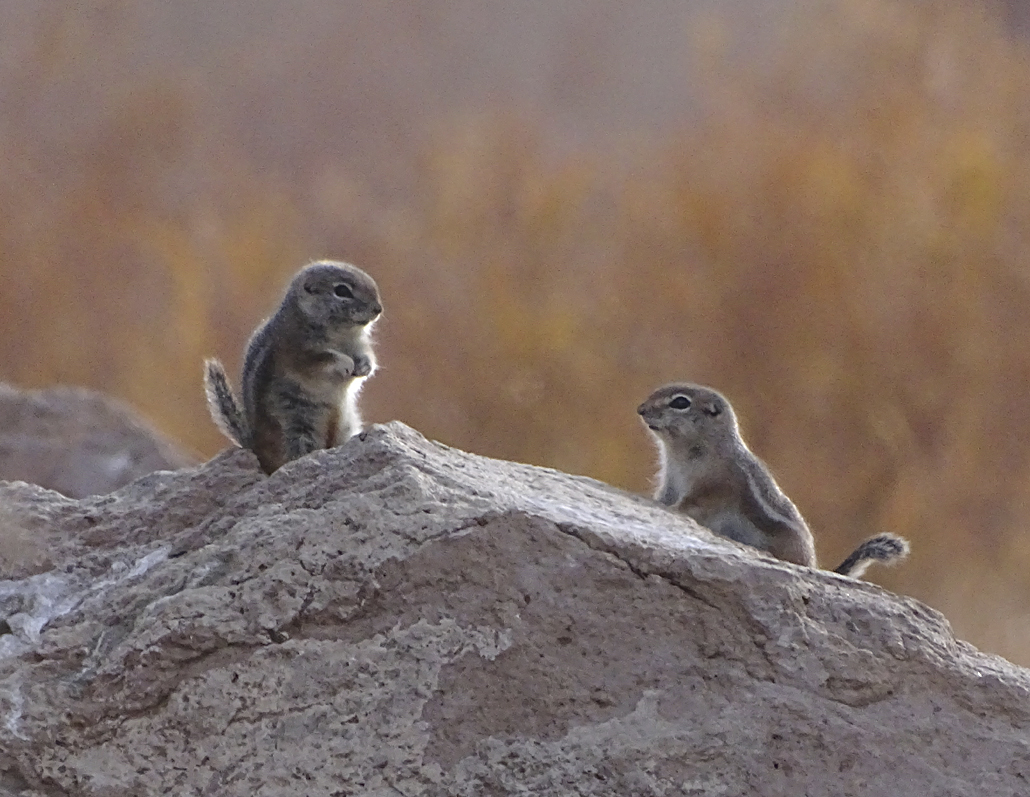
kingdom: Animalia
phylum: Chordata
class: Mammalia
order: Rodentia
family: Sciuridae
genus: Ammospermophilus
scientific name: Ammospermophilus leucurus
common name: White-tailed antelope squirrel
